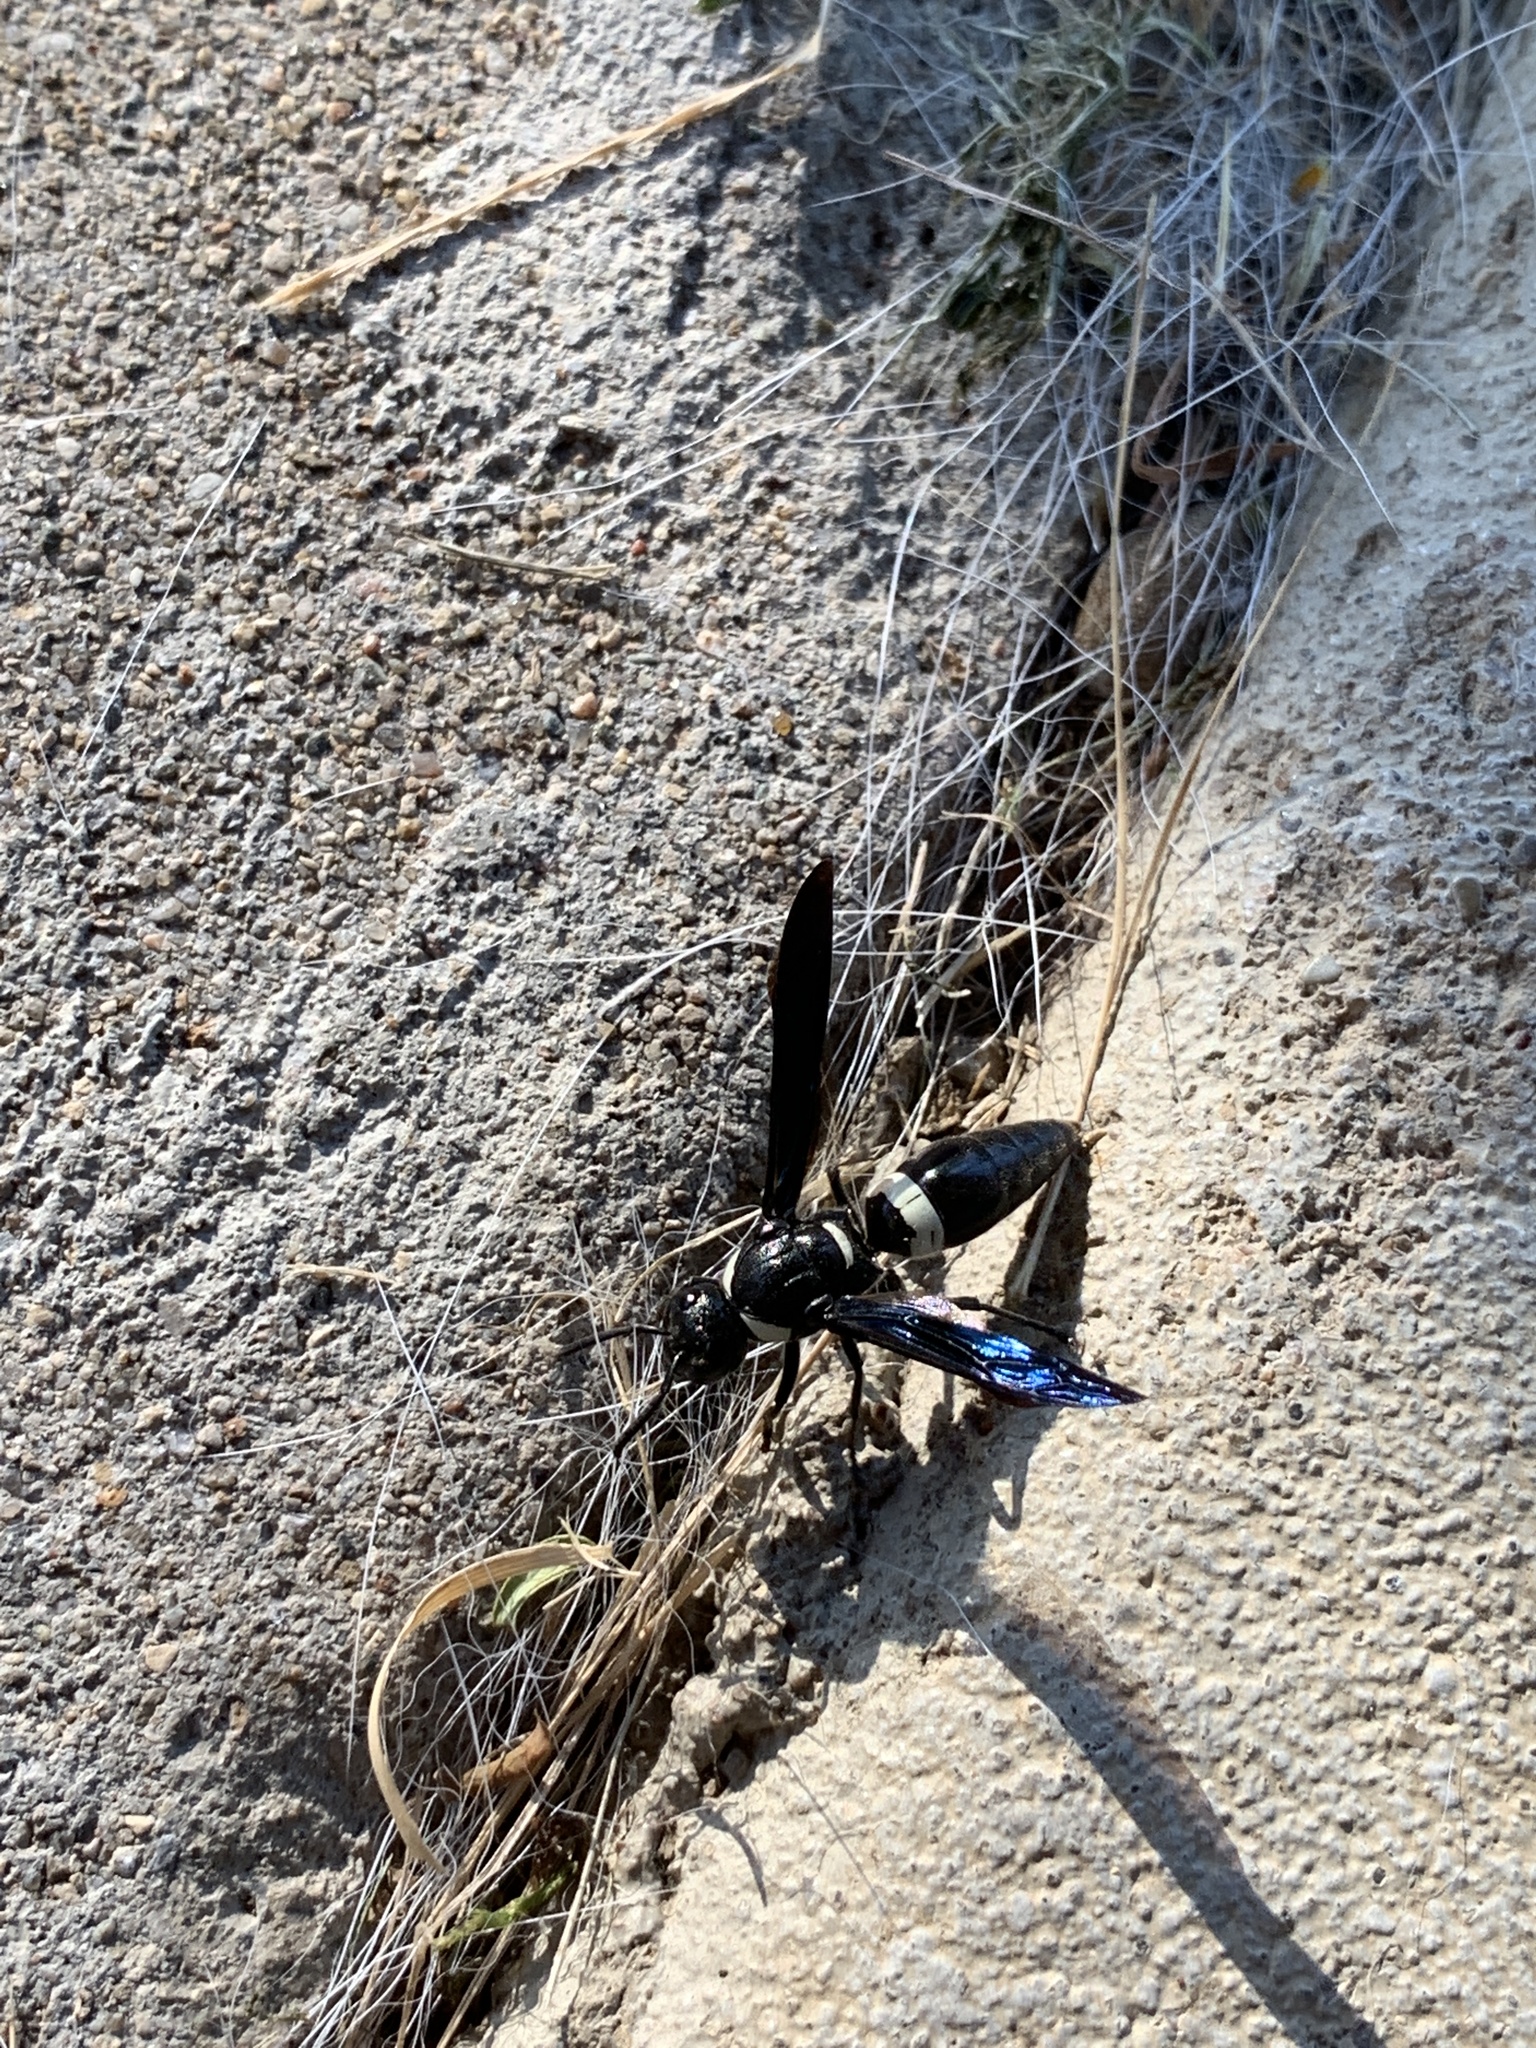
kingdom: Animalia
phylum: Arthropoda
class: Insecta
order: Hymenoptera
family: Eumenidae
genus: Monobia
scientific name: Monobia quadridens
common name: Four-toothed mason wasp
